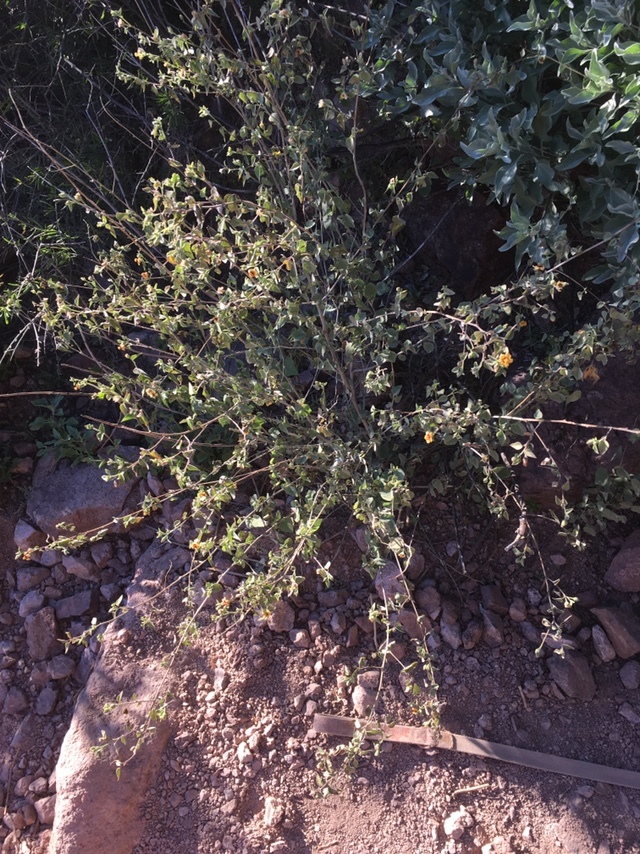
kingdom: Plantae
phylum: Tracheophyta
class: Magnoliopsida
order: Malvales
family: Malvaceae
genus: Abutilon
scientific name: Abutilon incanum
